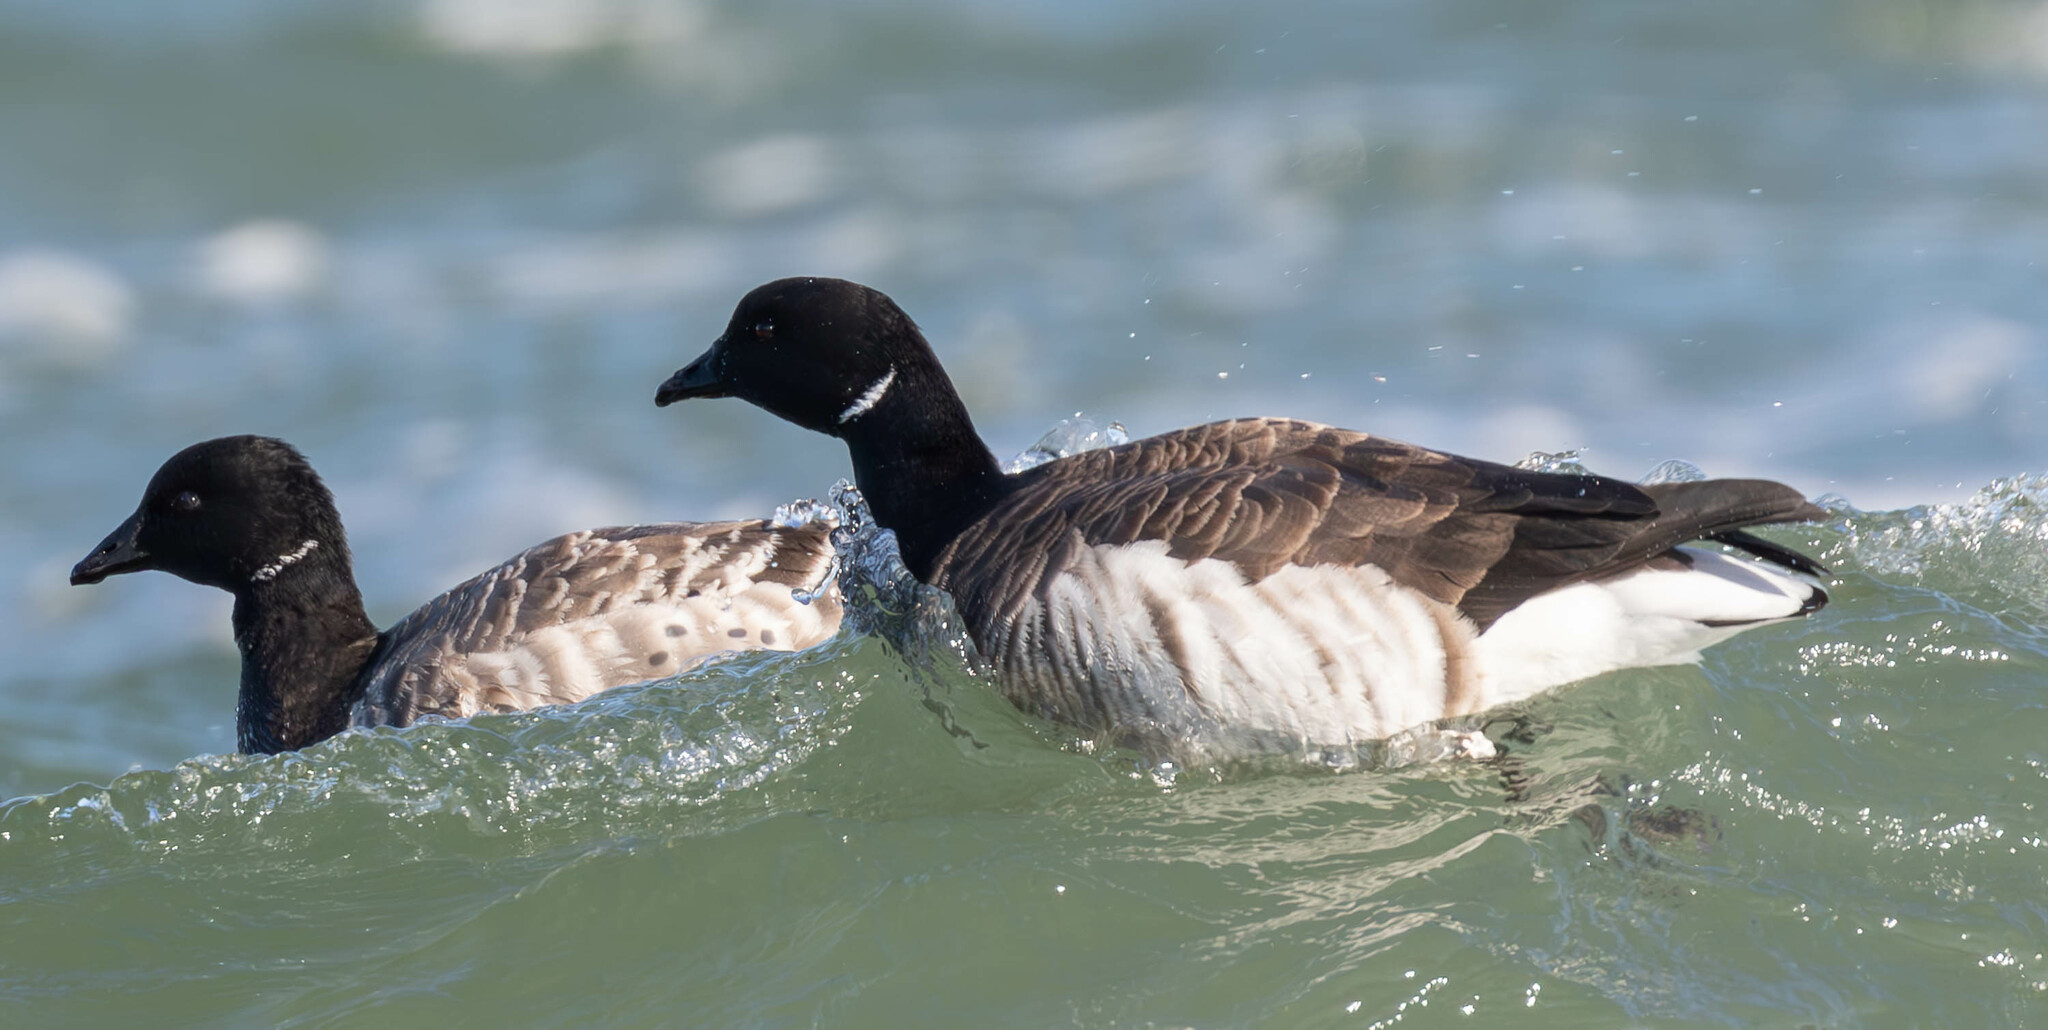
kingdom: Animalia
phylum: Chordata
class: Aves
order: Anseriformes
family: Anatidae
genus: Branta
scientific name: Branta bernicla
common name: Brant goose
